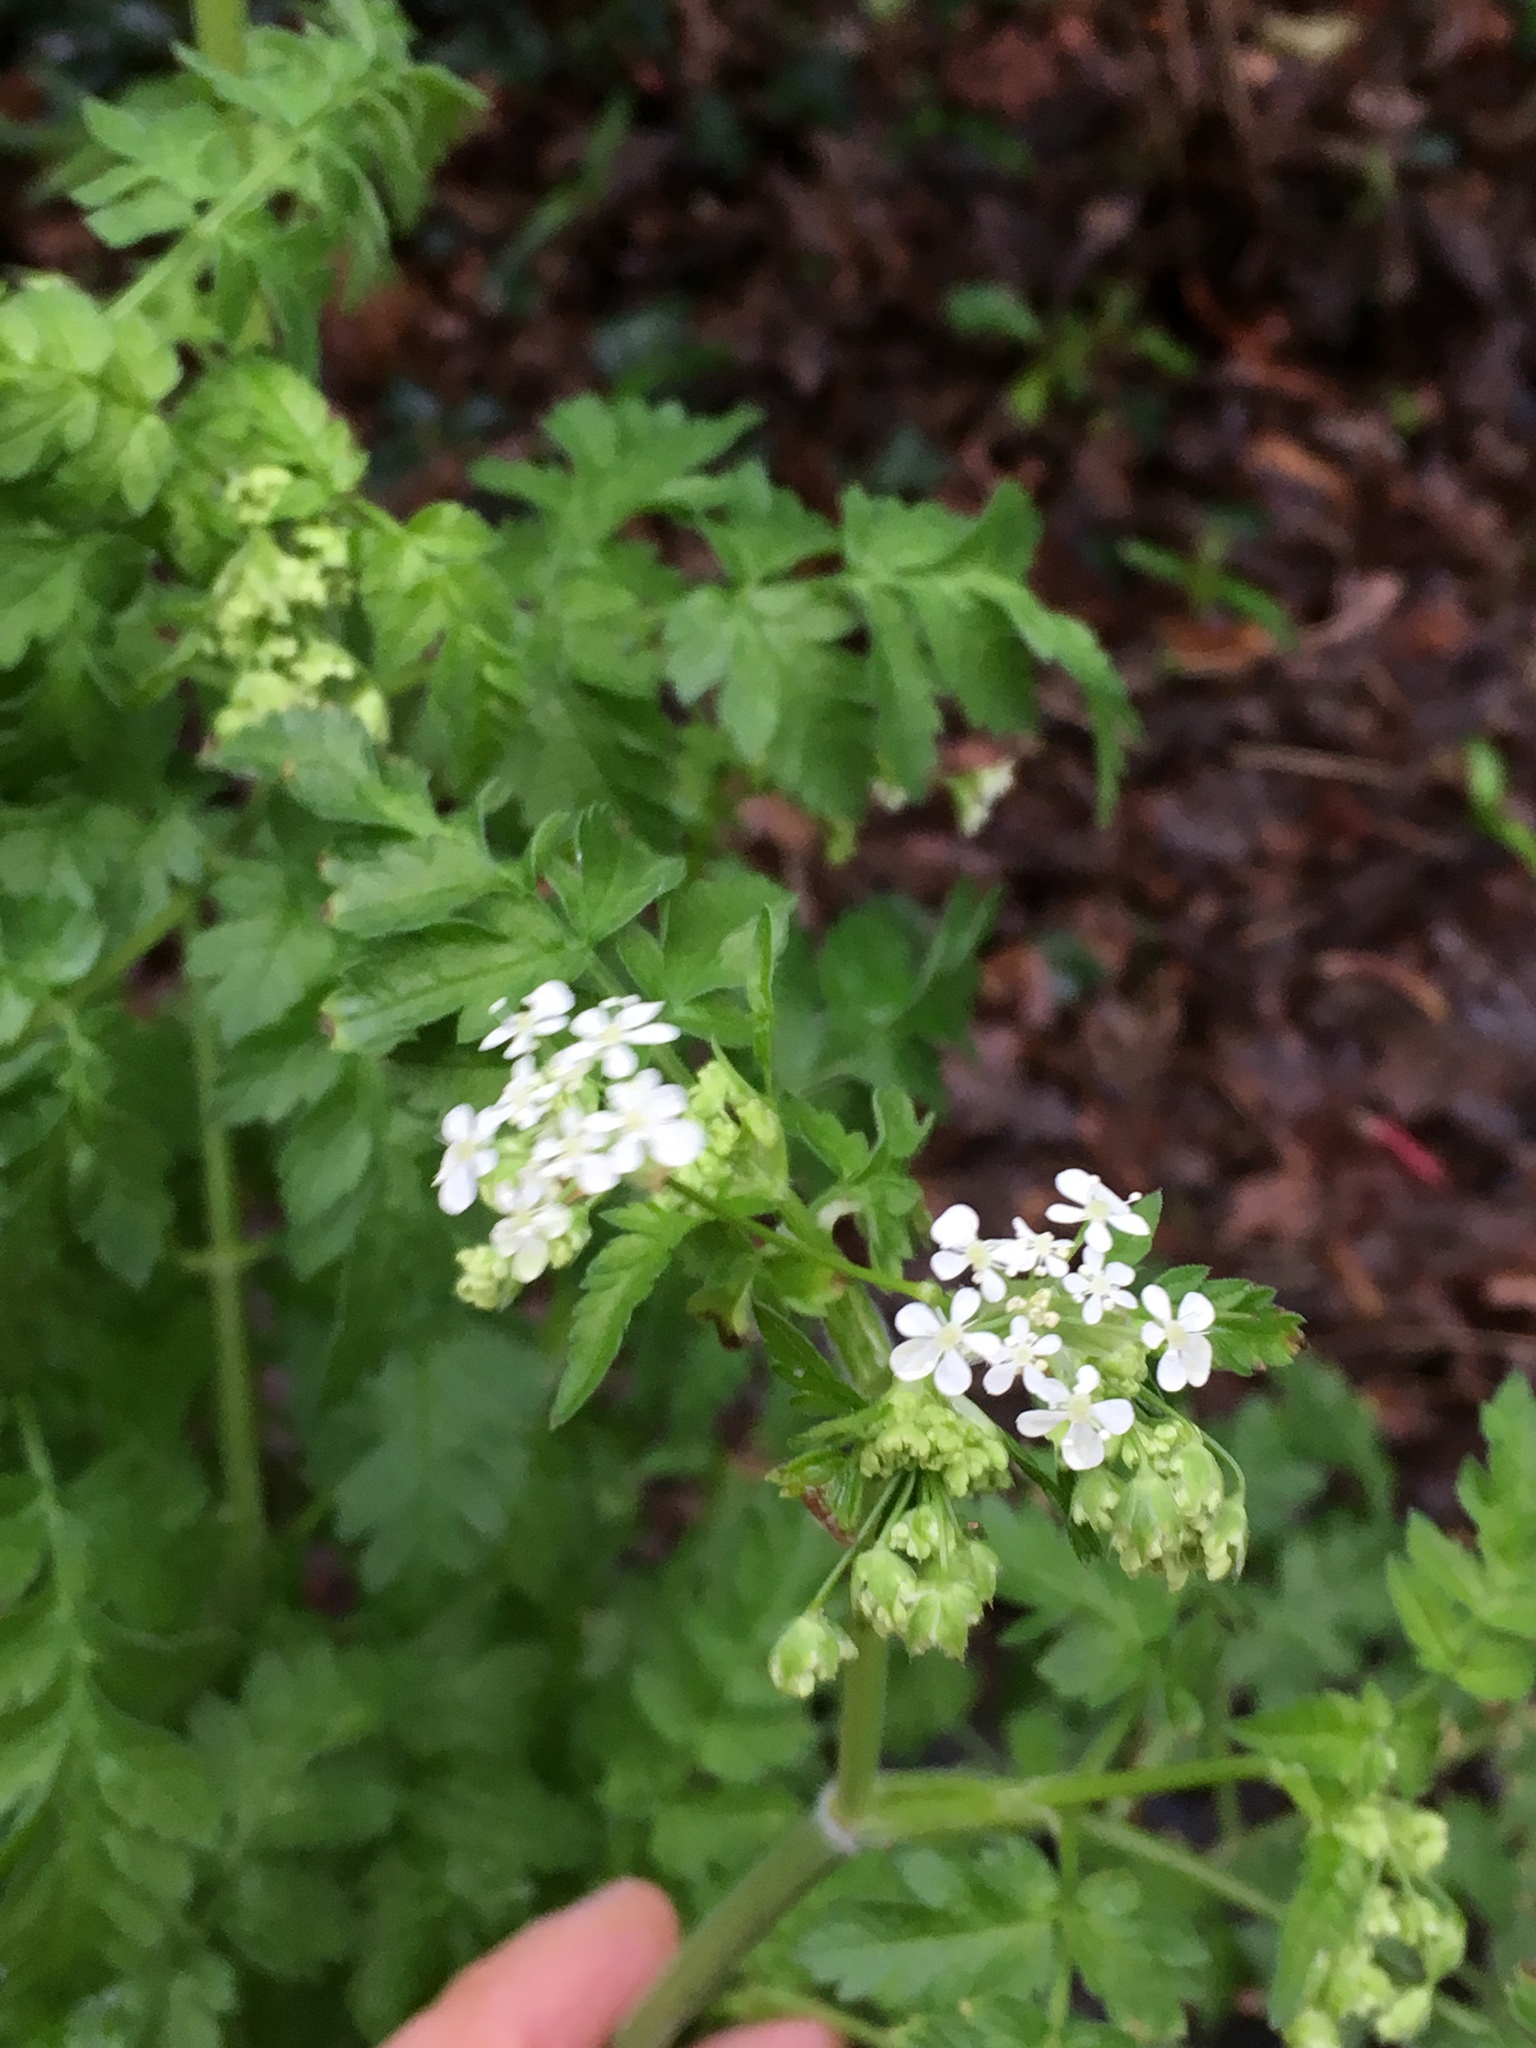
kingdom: Plantae
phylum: Tracheophyta
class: Magnoliopsida
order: Apiales
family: Apiaceae
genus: Anthriscus
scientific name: Anthriscus sylvestris
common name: Cow parsley
